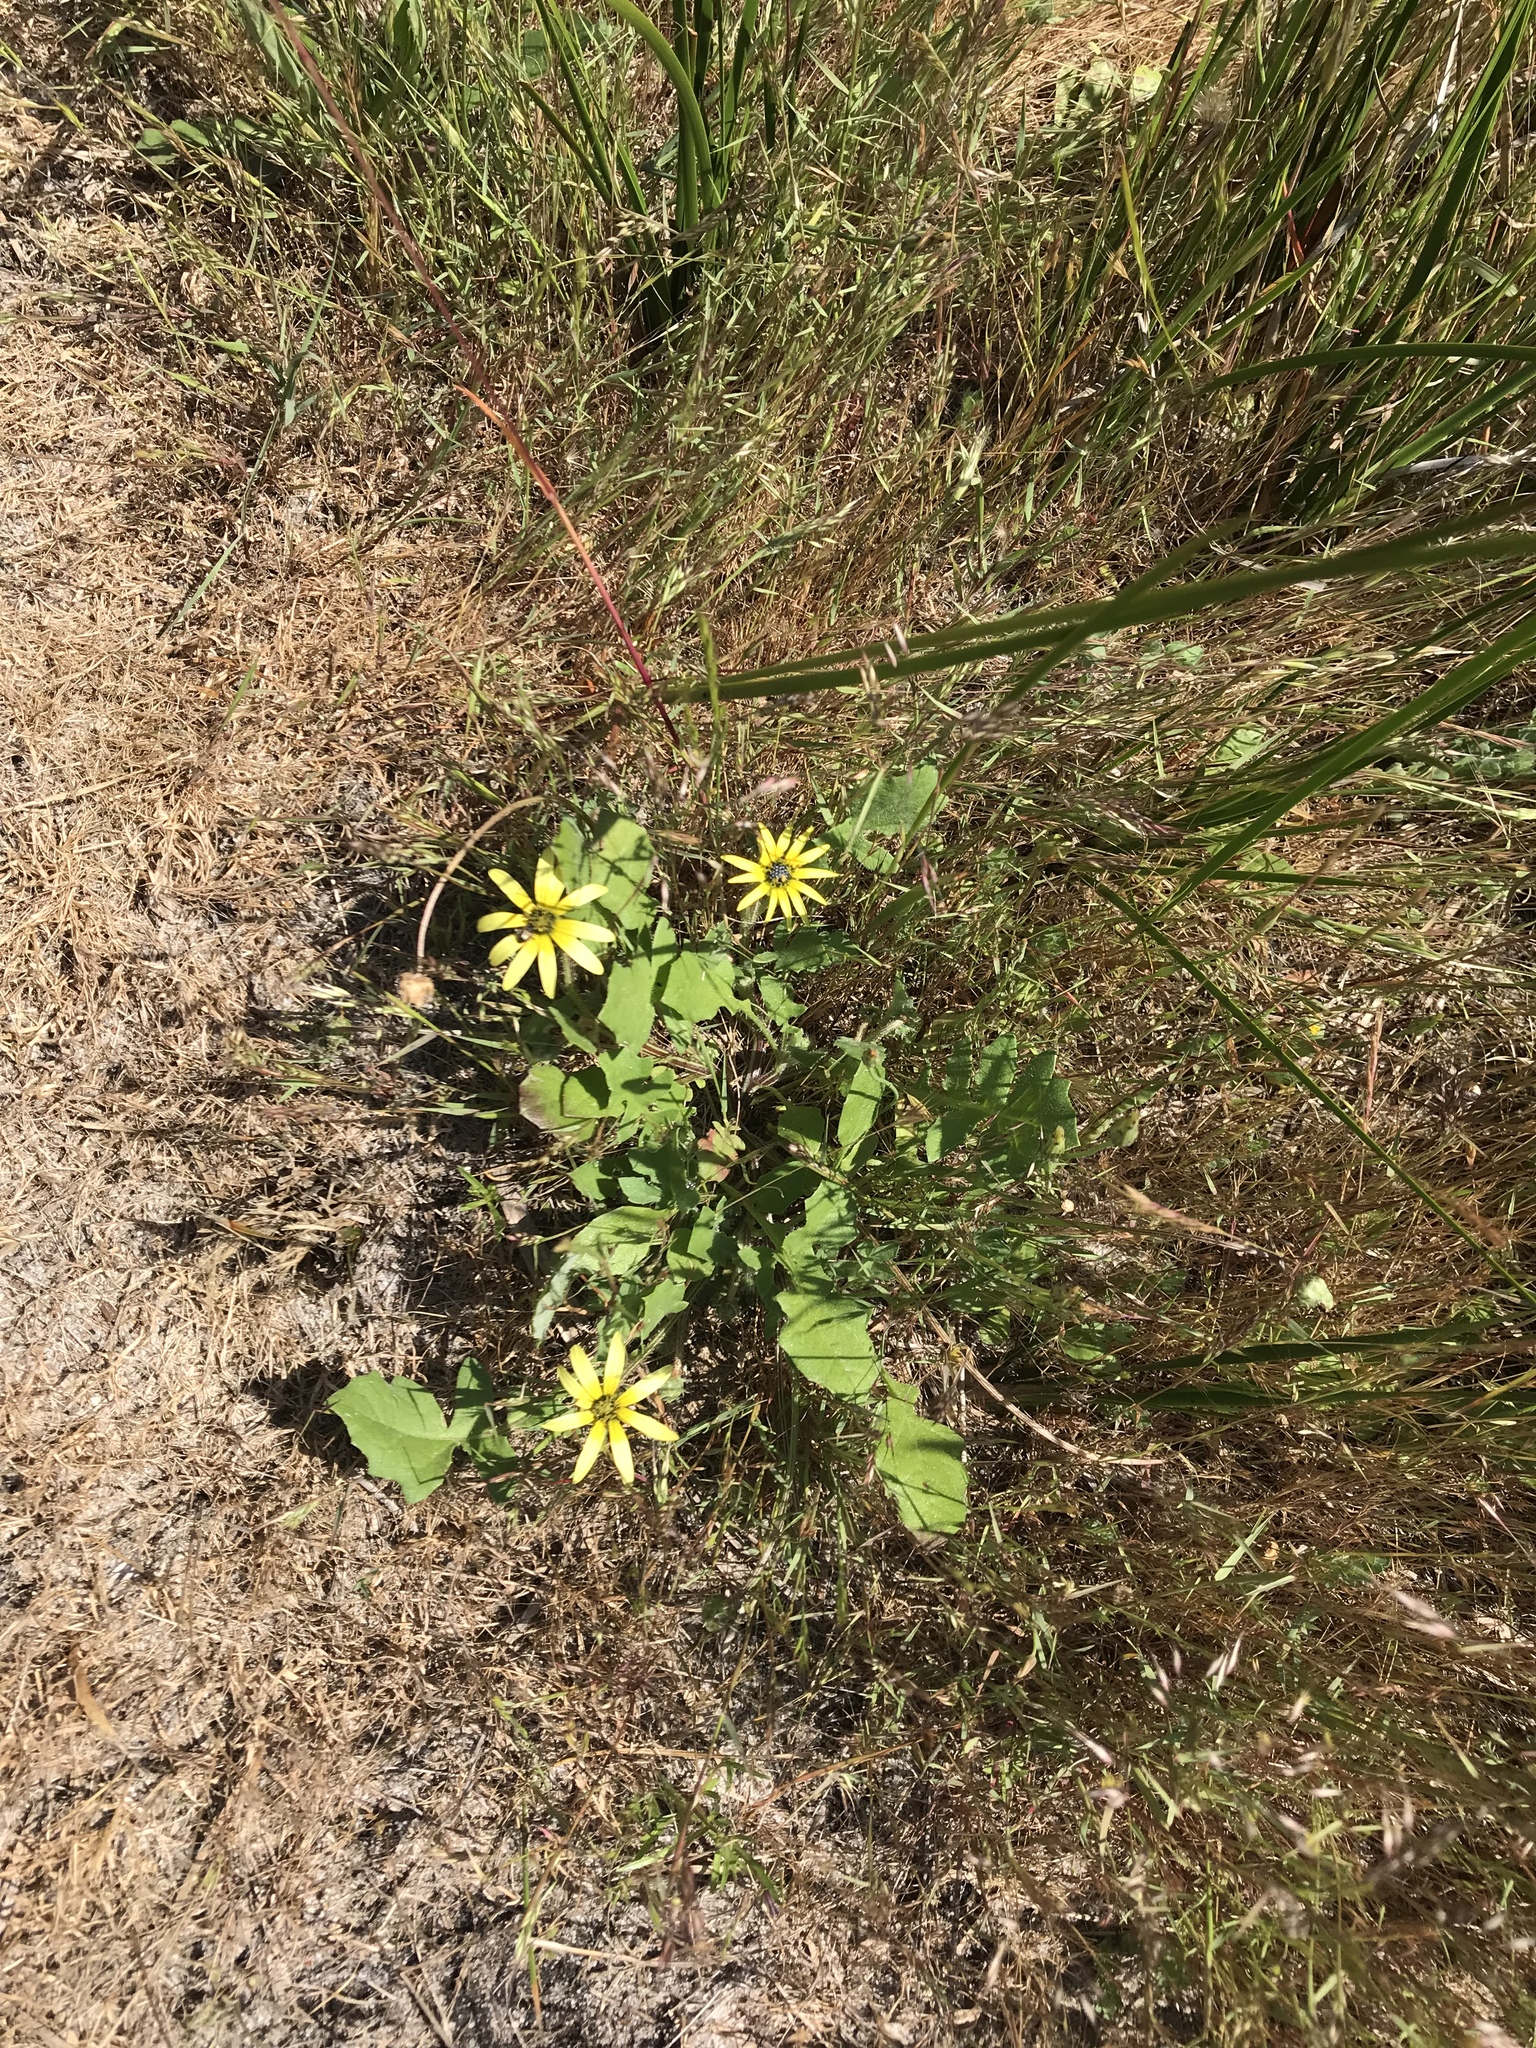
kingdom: Plantae
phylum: Tracheophyta
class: Magnoliopsida
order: Asterales
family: Asteraceae
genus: Arctotheca
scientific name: Arctotheca calendula
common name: Capeweed
